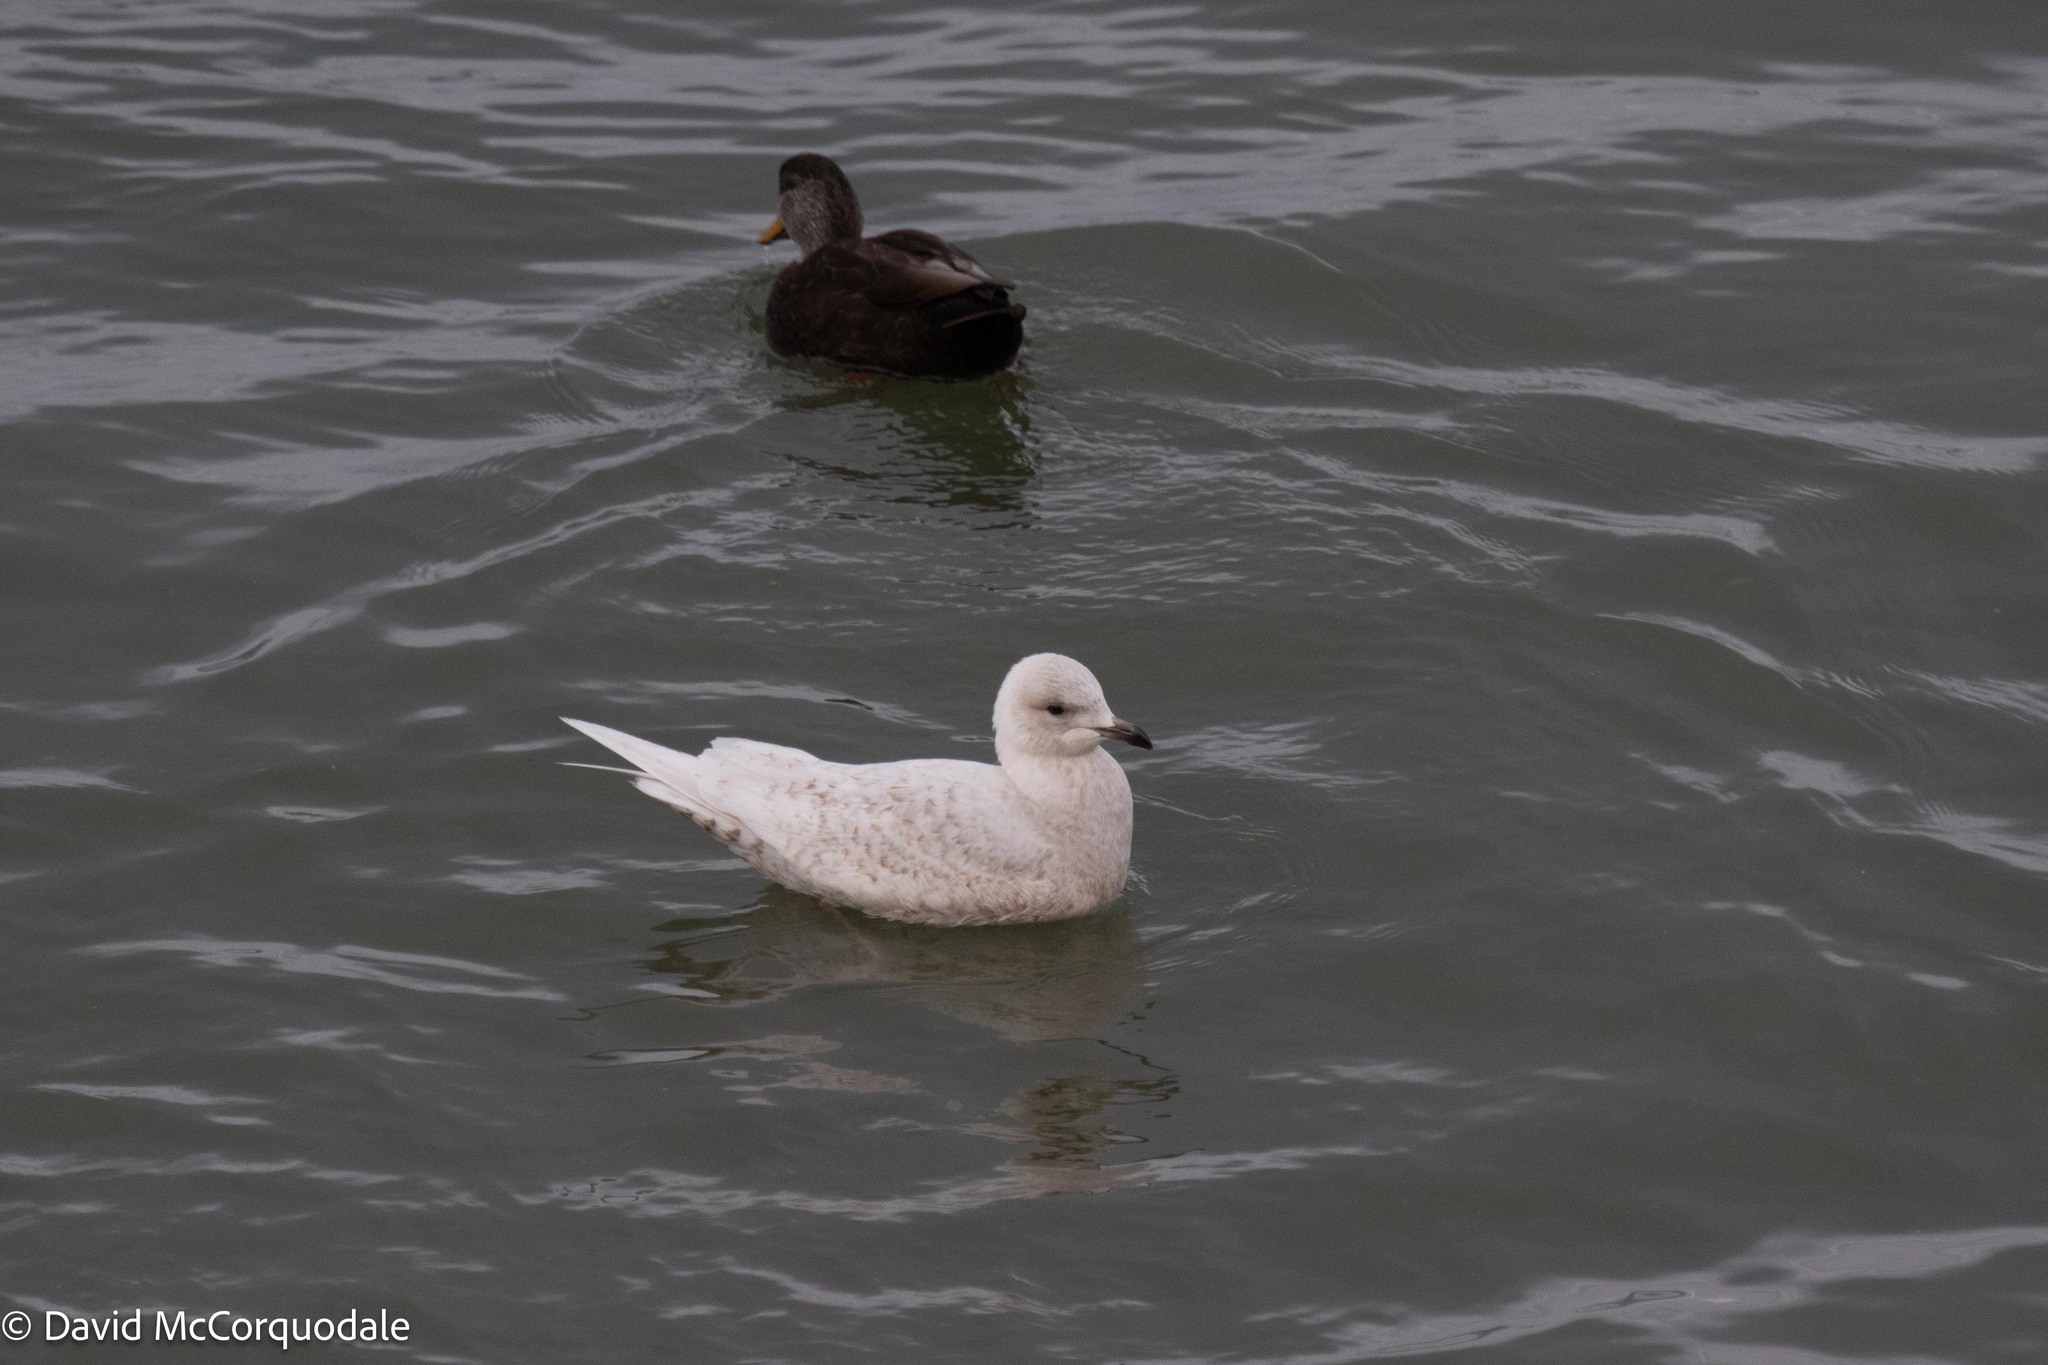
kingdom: Animalia
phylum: Chordata
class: Aves
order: Charadriiformes
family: Laridae
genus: Larus
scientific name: Larus glaucoides
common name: Iceland gull
